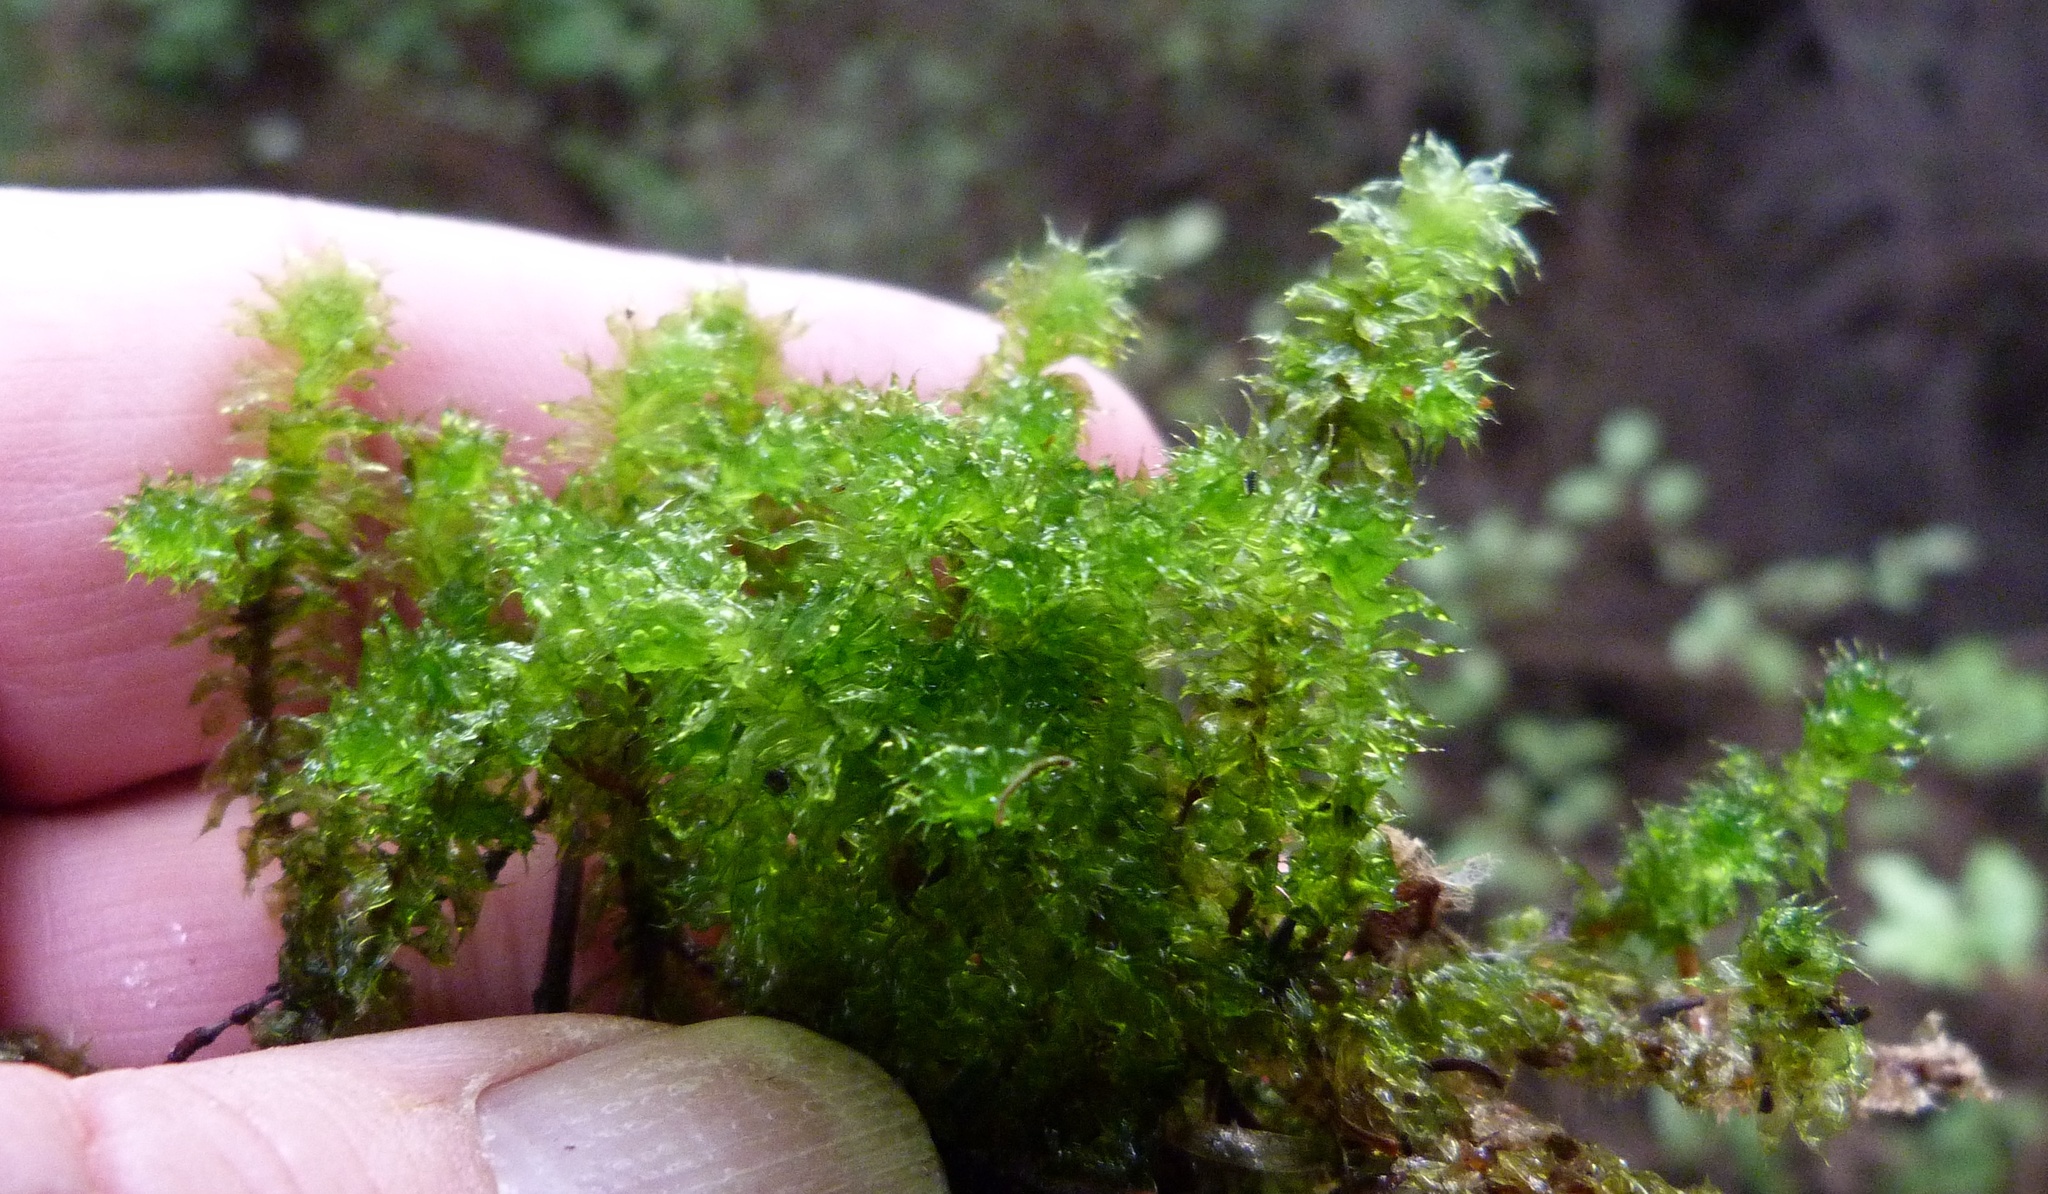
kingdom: Plantae
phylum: Bryophyta
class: Bryopsida
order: Ptychomniales
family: Ptychomniaceae
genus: Ptychomnion
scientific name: Ptychomnion aciculare
